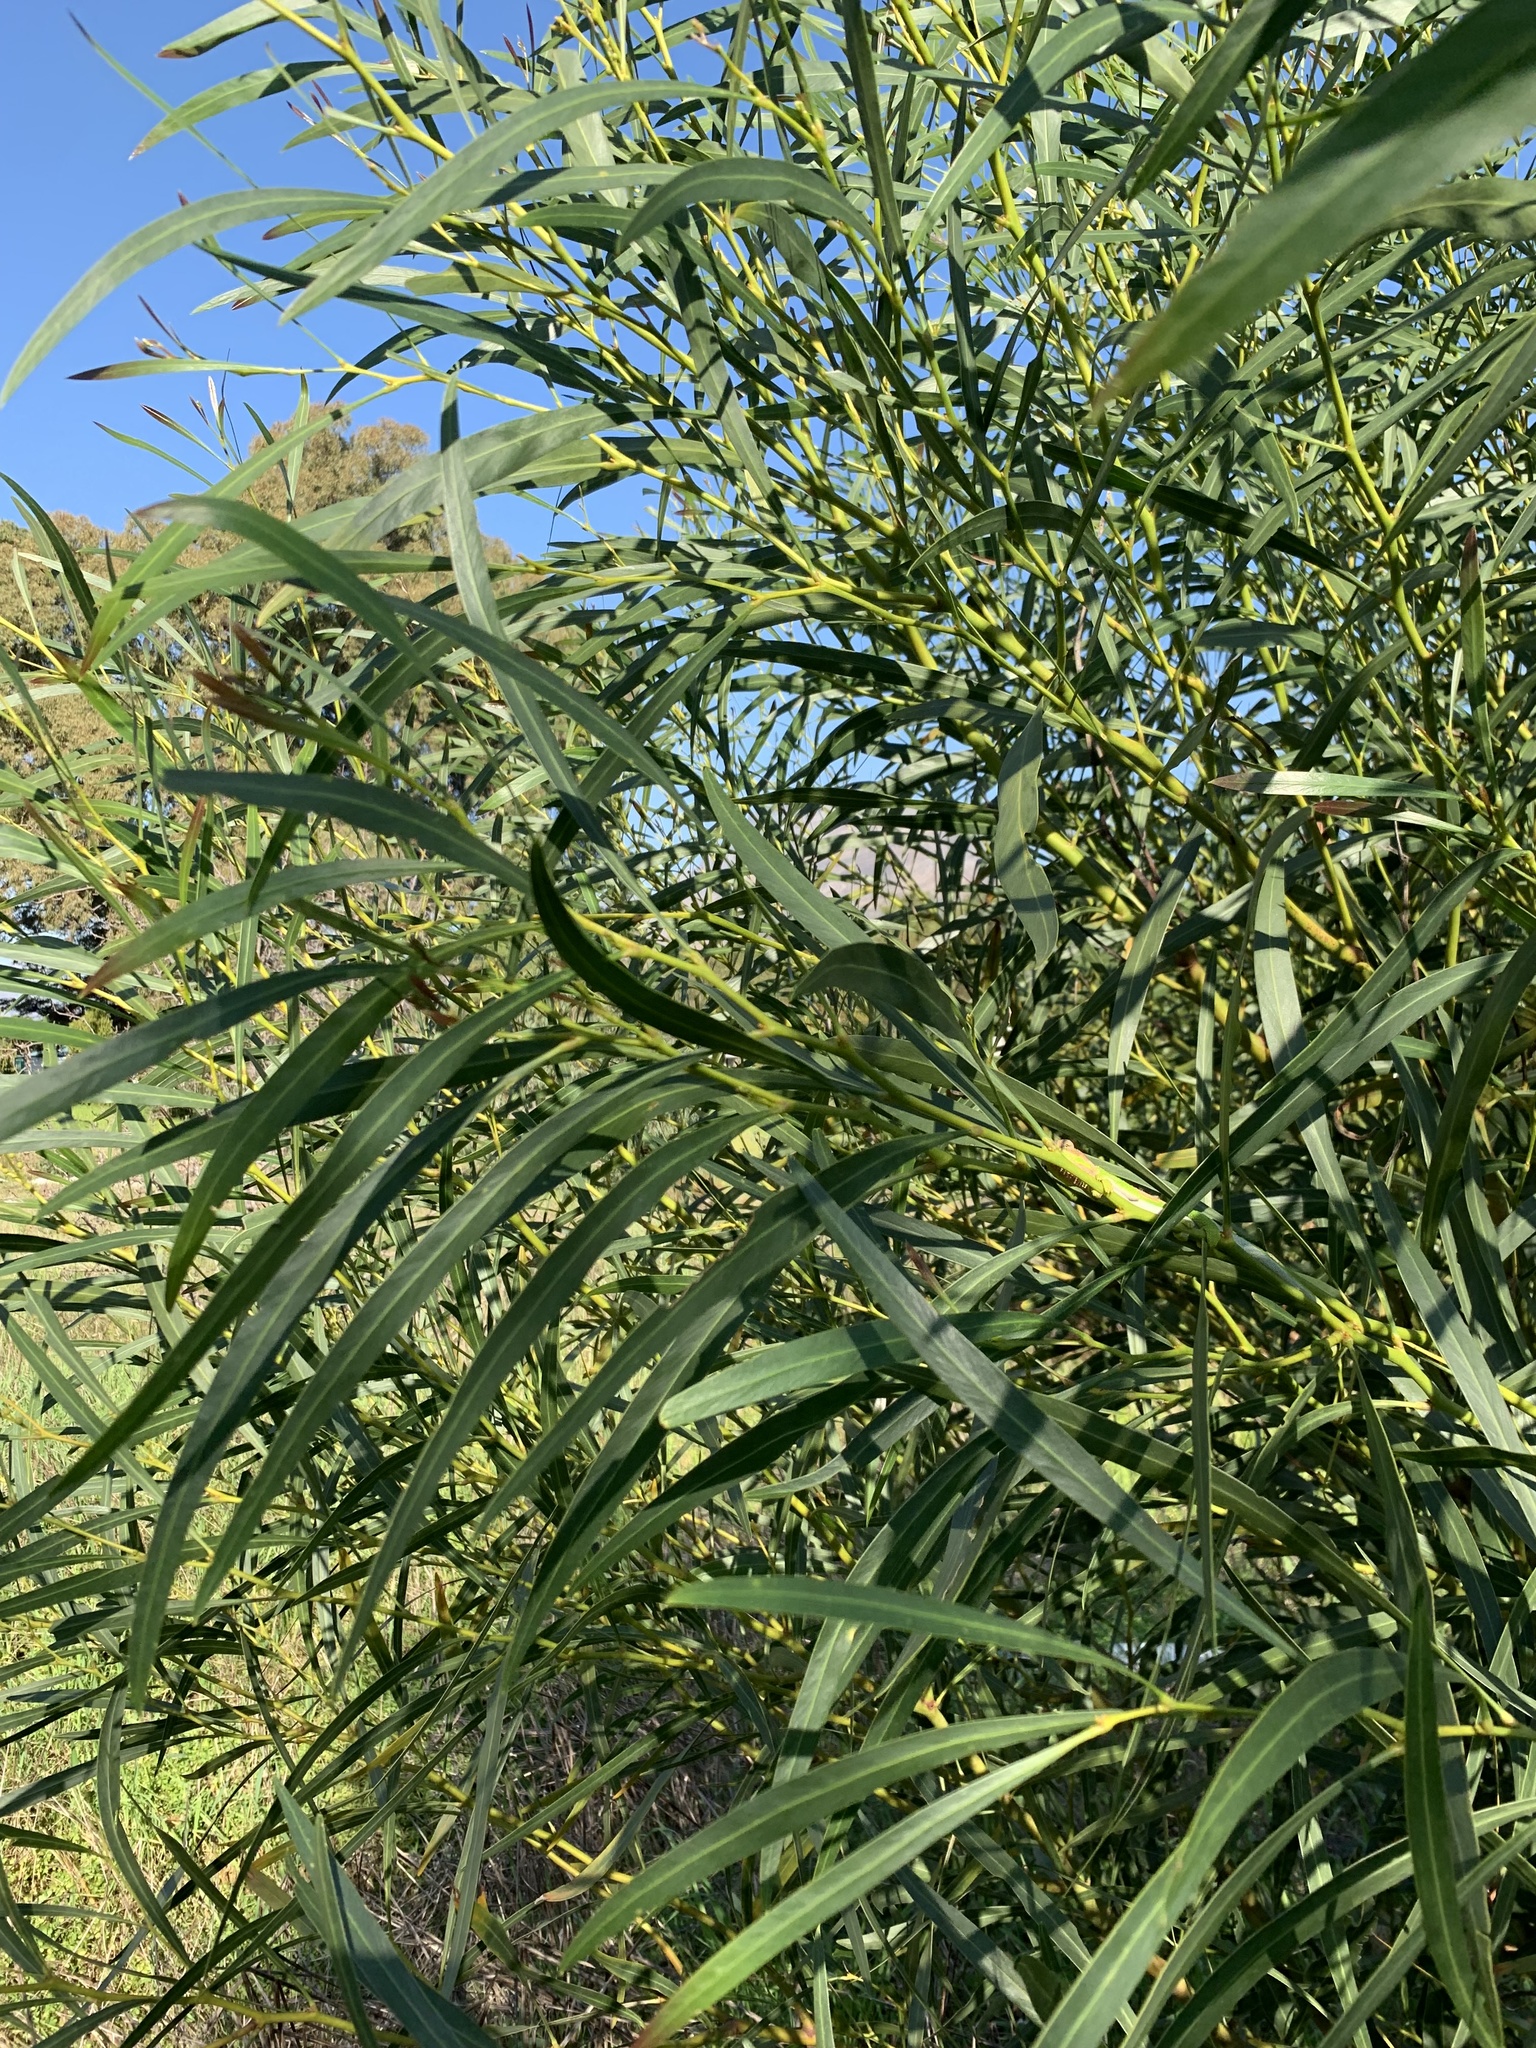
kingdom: Plantae
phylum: Tracheophyta
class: Magnoliopsida
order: Fabales
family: Fabaceae
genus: Acacia
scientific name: Acacia saligna
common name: Orange wattle
